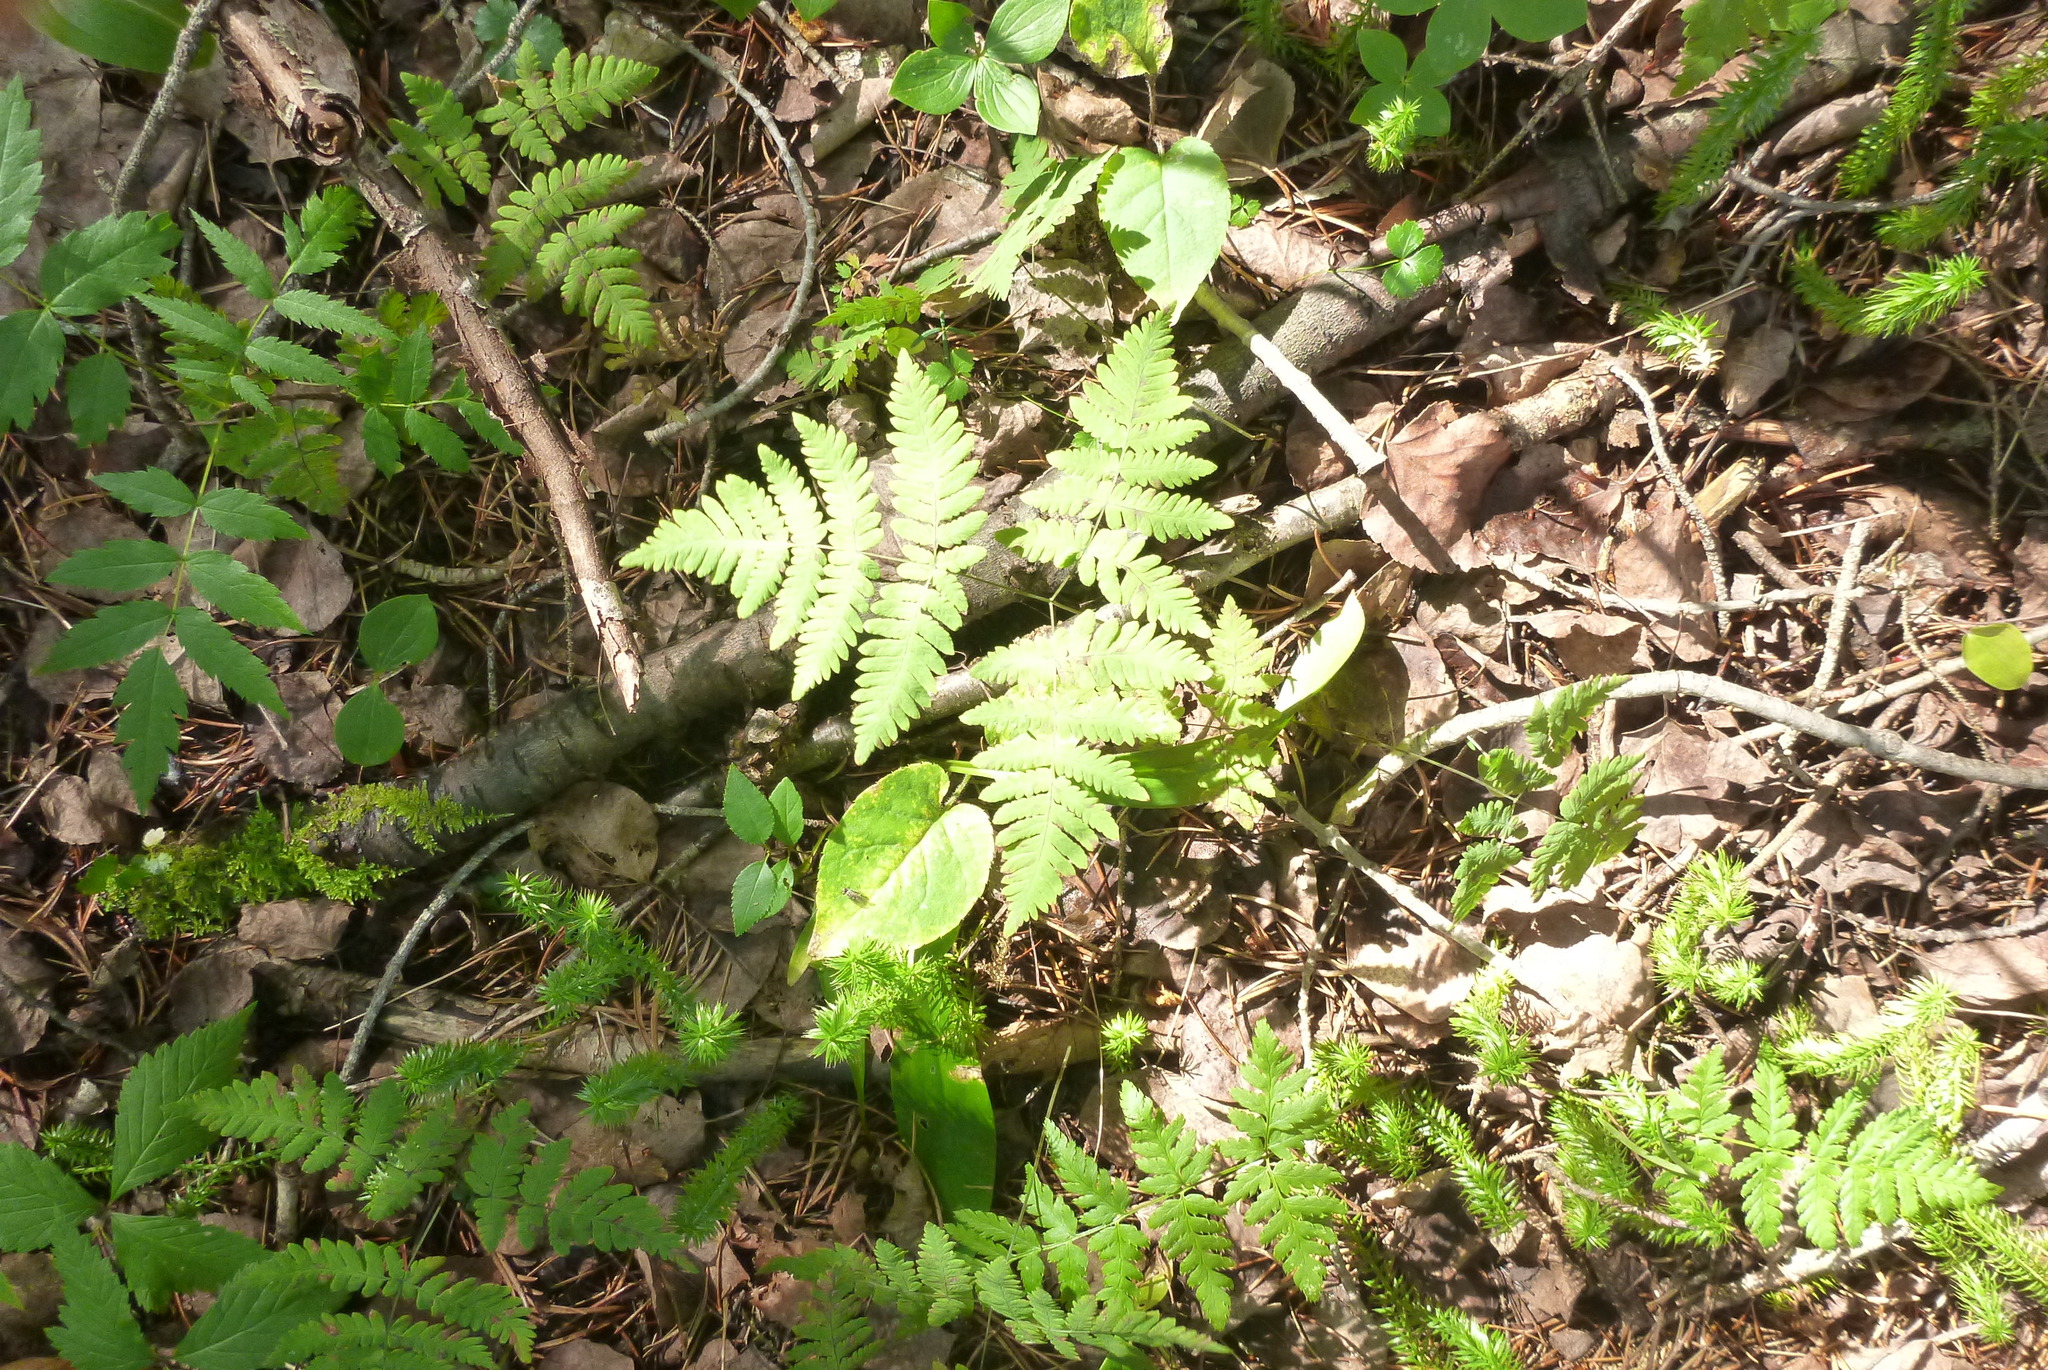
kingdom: Plantae
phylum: Tracheophyta
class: Polypodiopsida
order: Polypodiales
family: Cystopteridaceae
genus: Gymnocarpium
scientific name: Gymnocarpium dryopteris
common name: Oak fern
